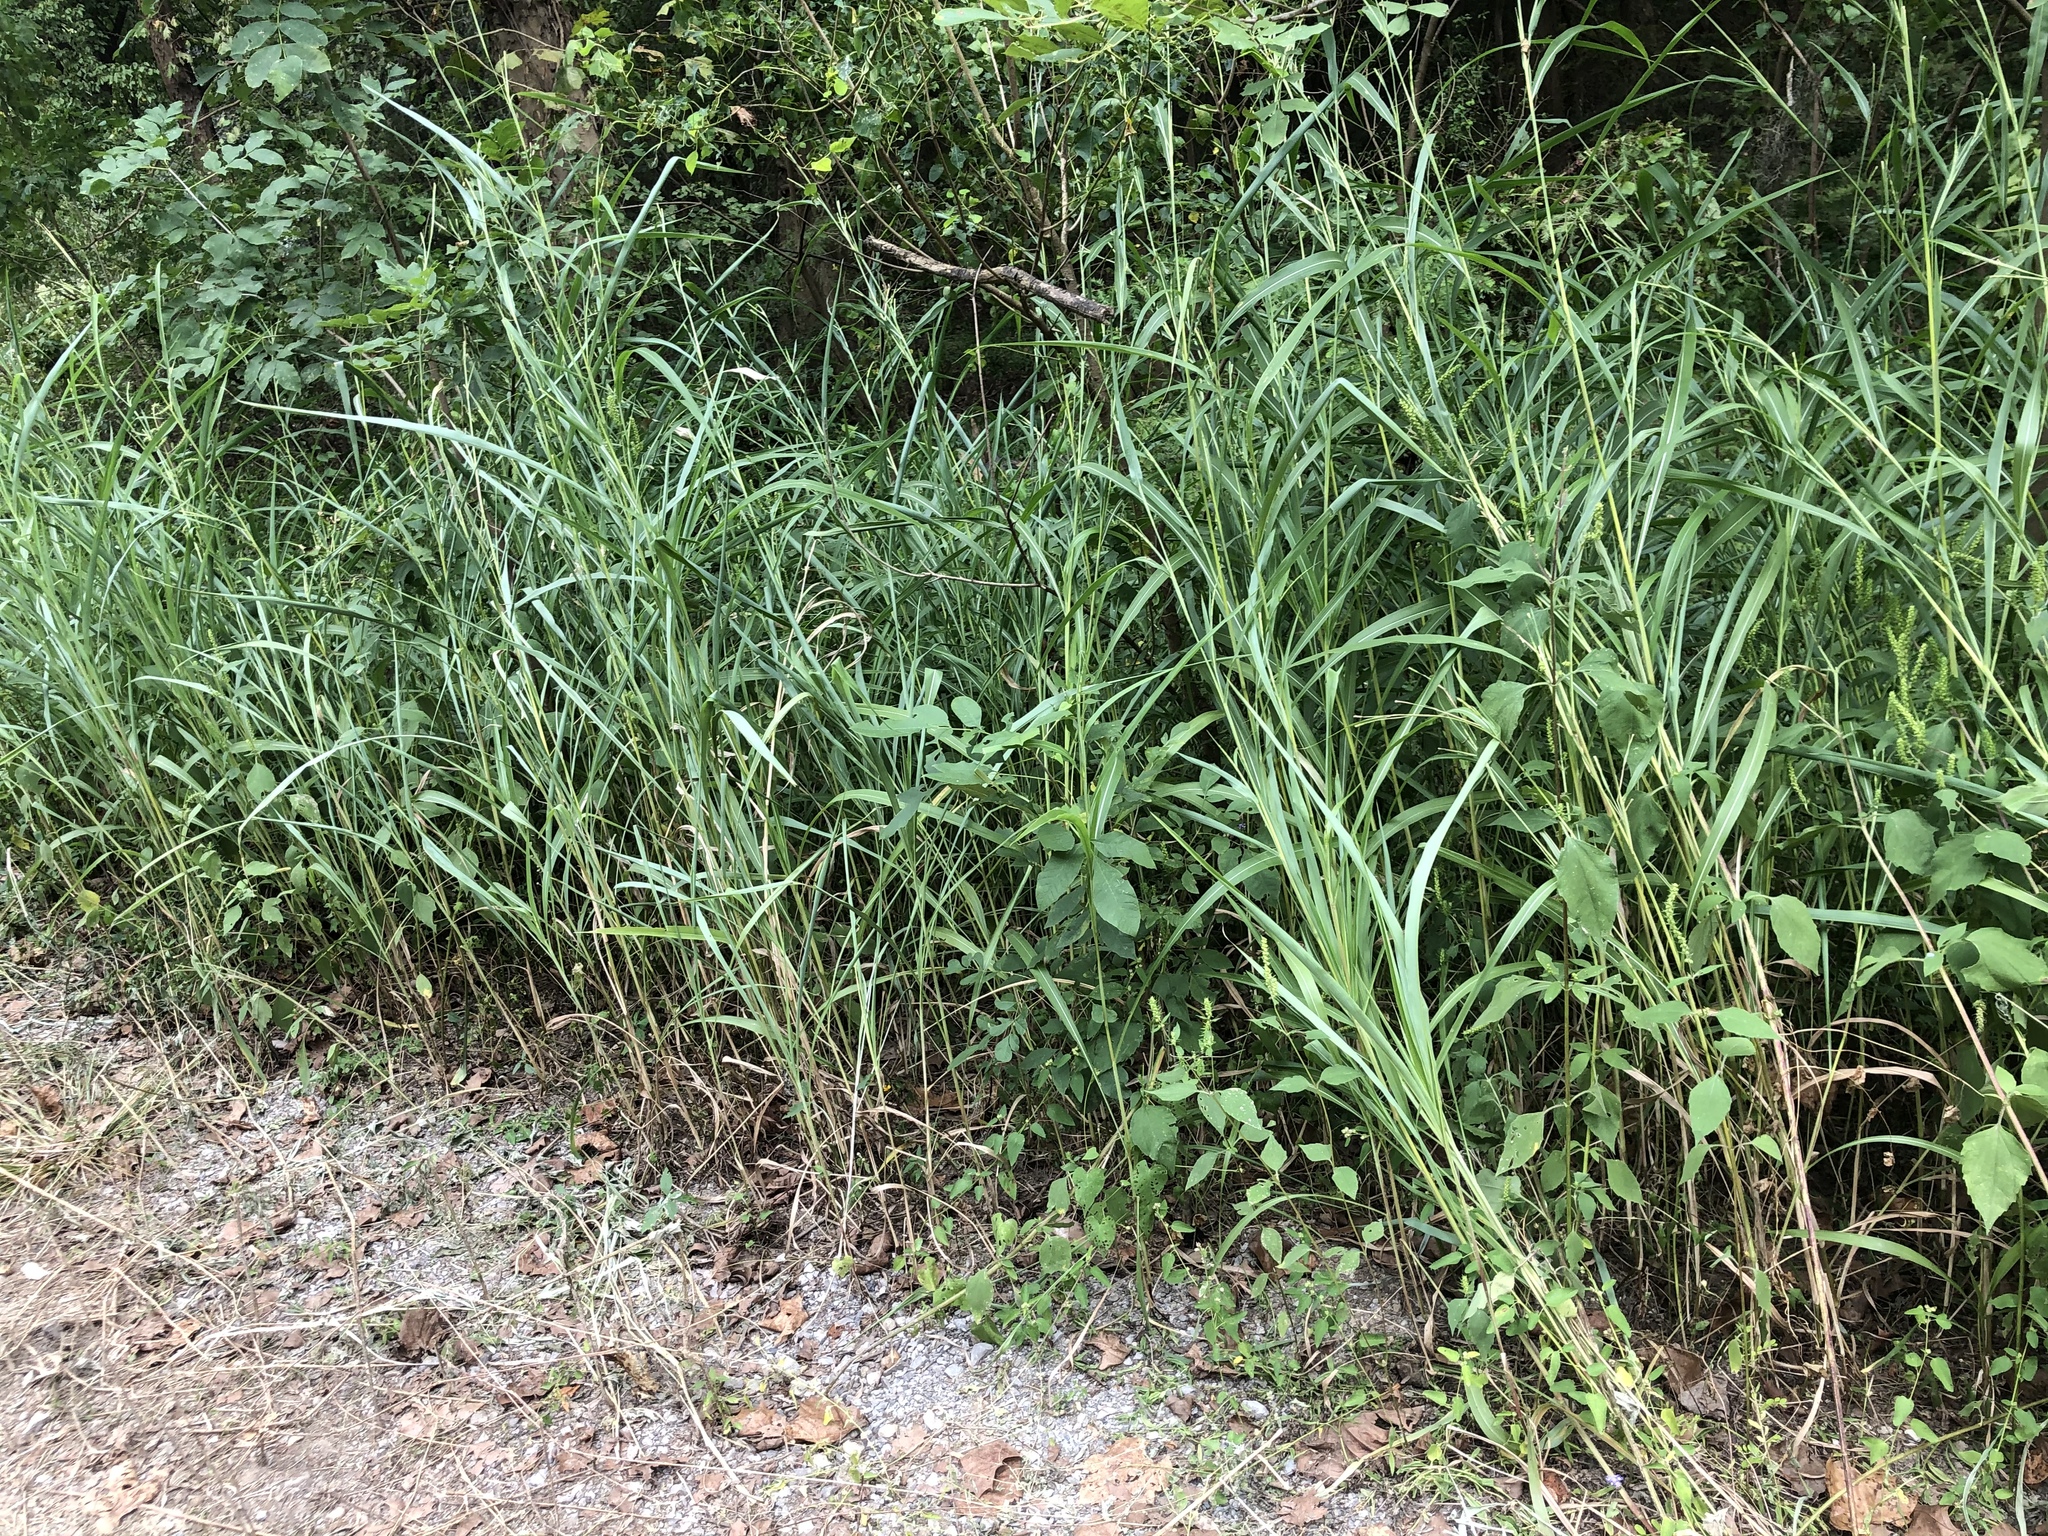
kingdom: Plantae
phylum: Tracheophyta
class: Liliopsida
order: Poales
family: Poaceae
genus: Rottboellia
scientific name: Rottboellia cochinchinensis
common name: Itchgrass
